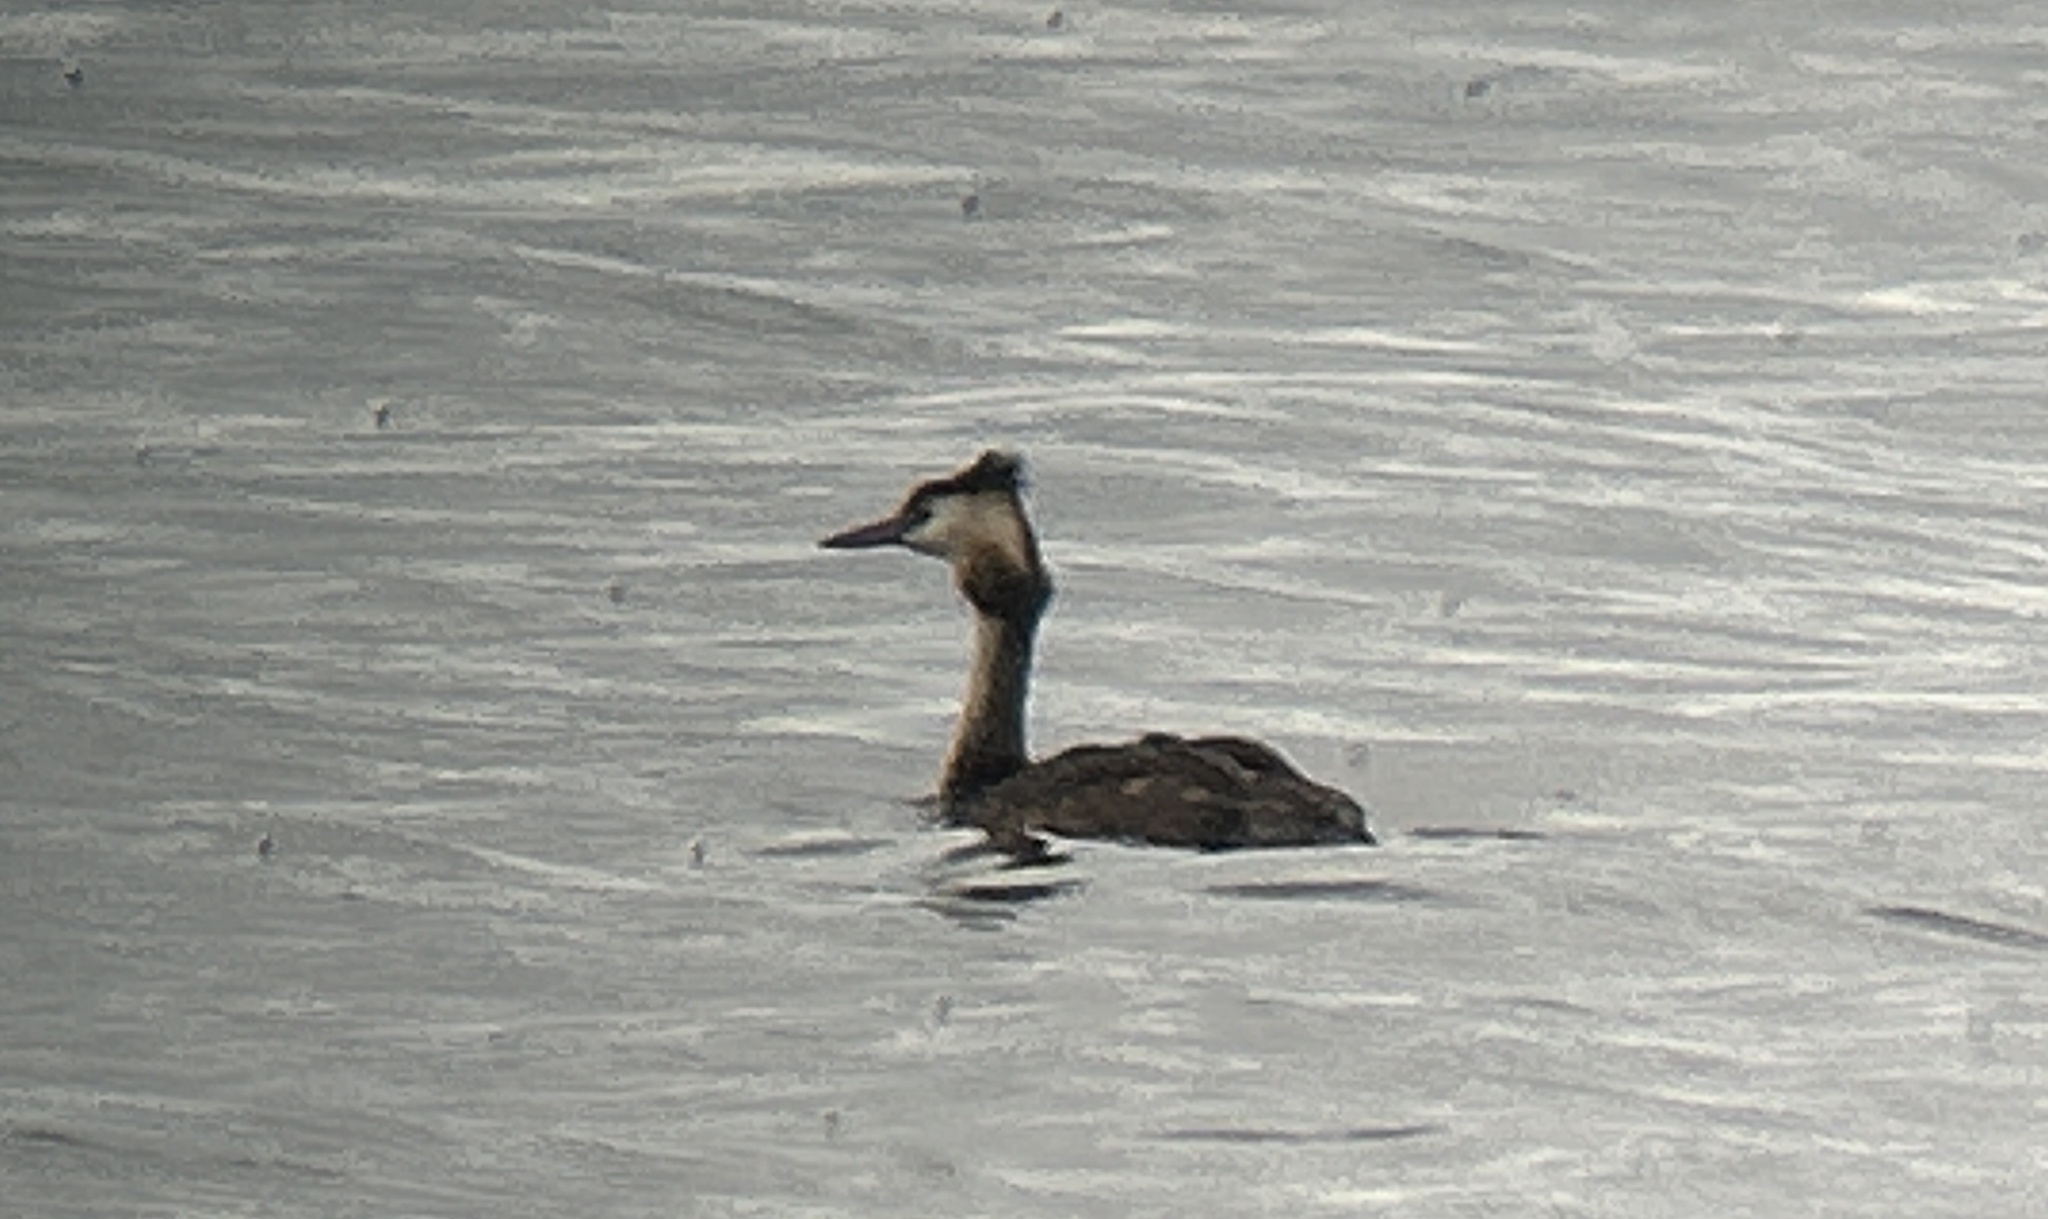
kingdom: Animalia
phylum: Chordata
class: Aves
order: Podicipediformes
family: Podicipedidae
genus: Podiceps
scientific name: Podiceps cristatus
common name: Great crested grebe
